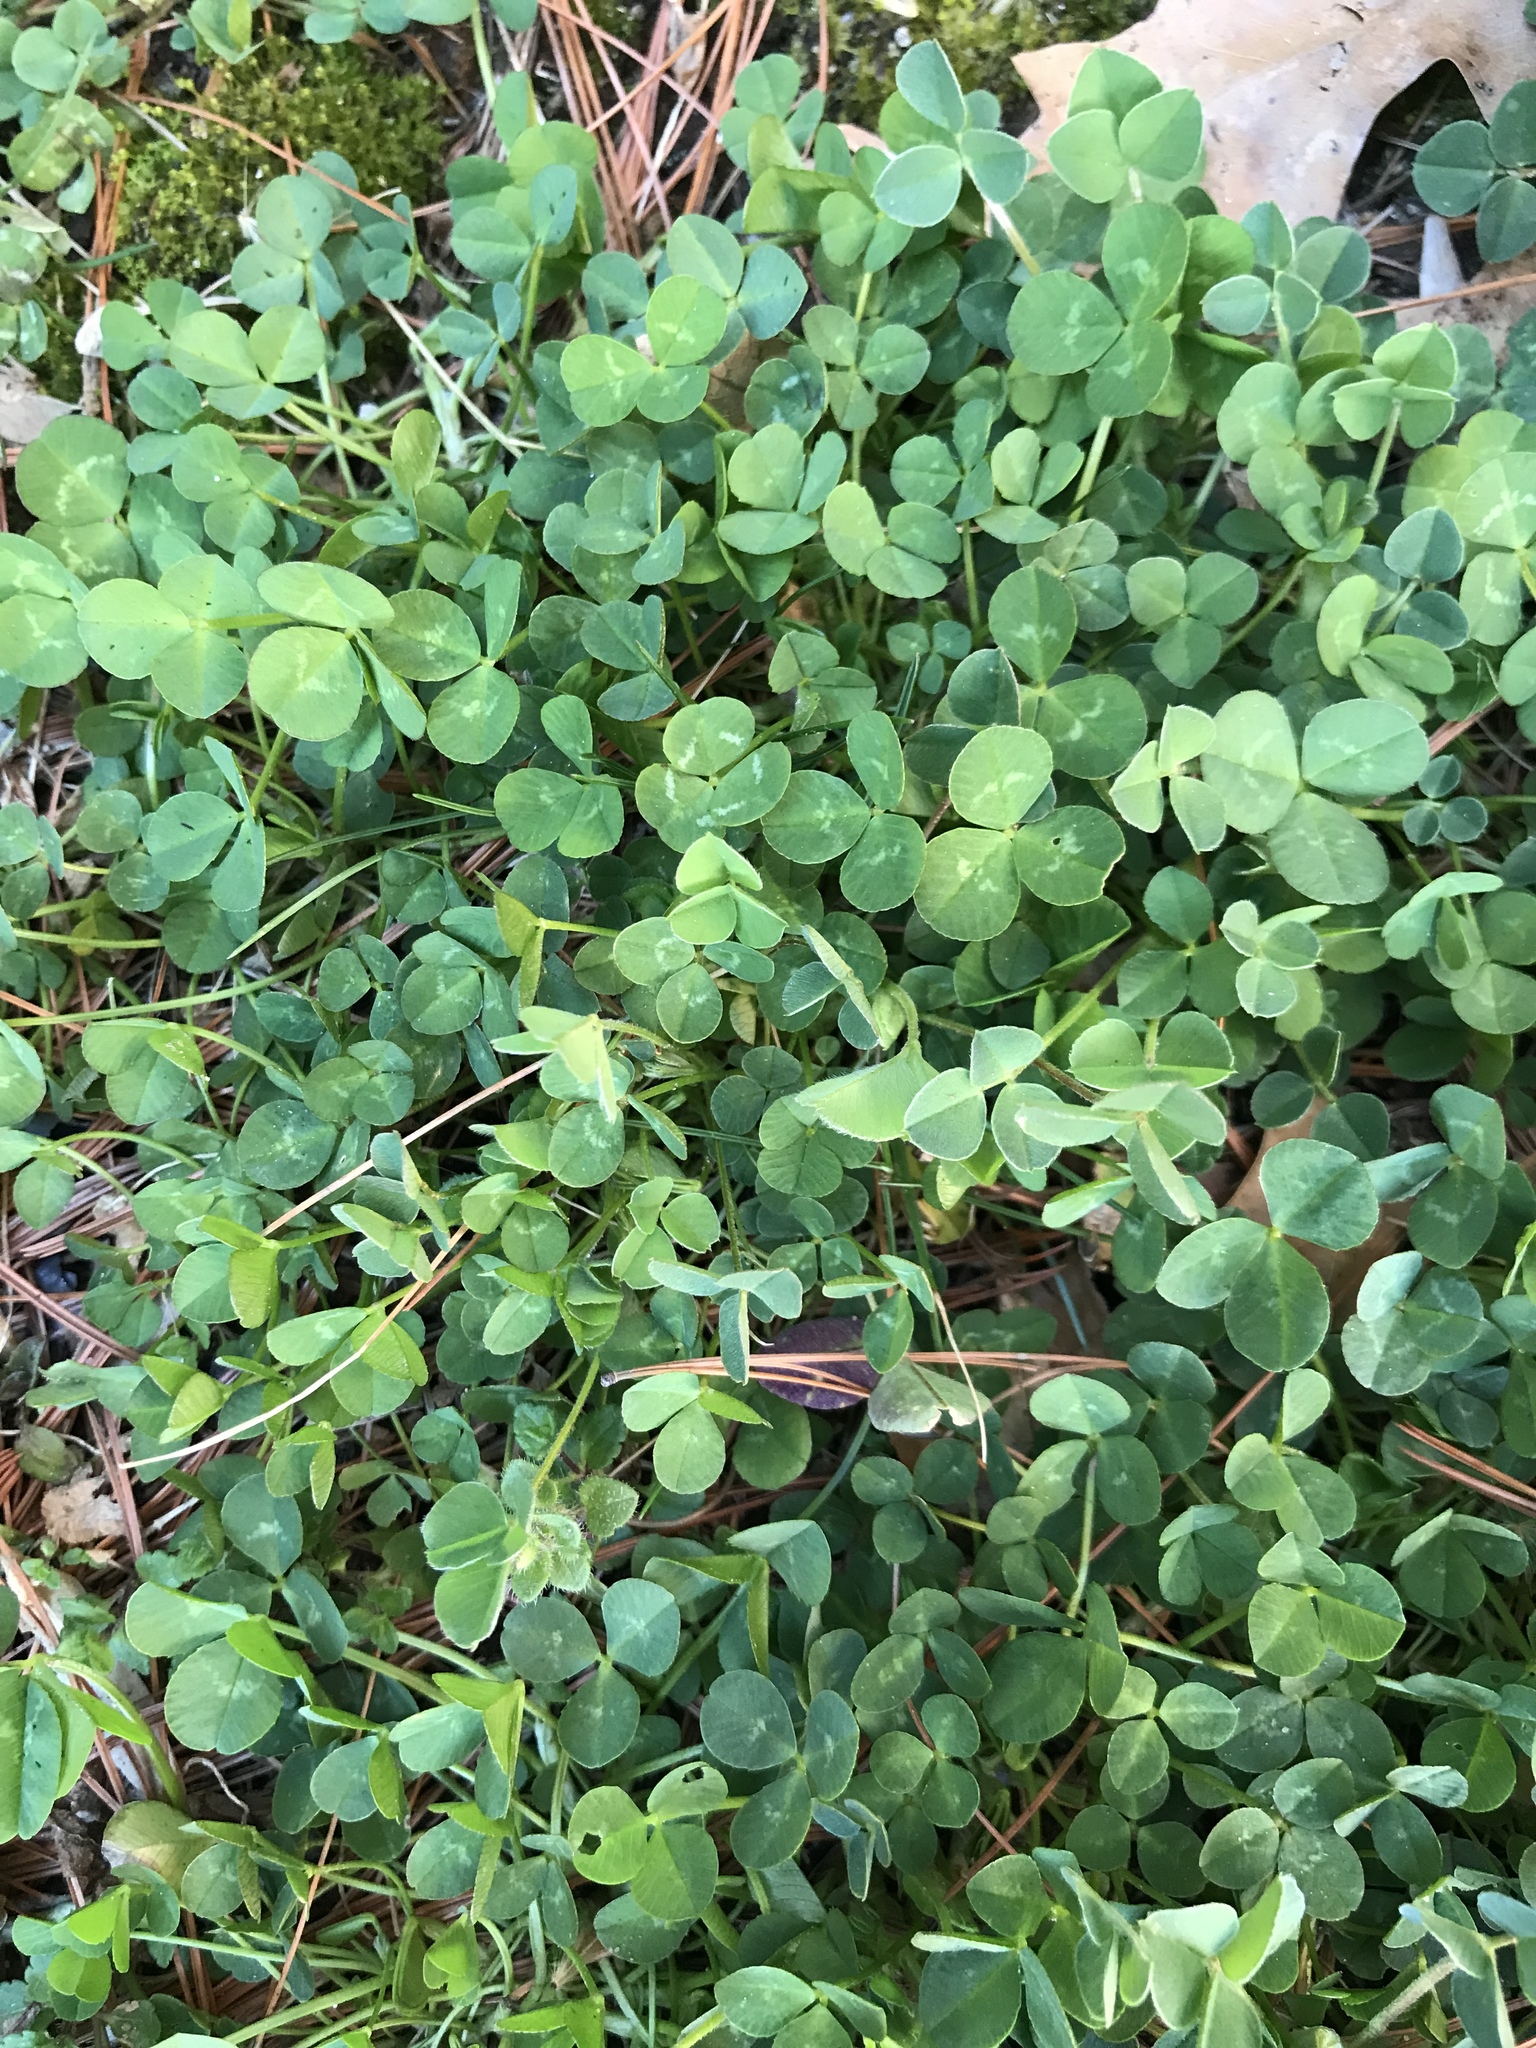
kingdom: Plantae
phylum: Tracheophyta
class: Magnoliopsida
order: Fabales
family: Fabaceae
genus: Trifolium
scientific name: Trifolium repens
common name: White clover
